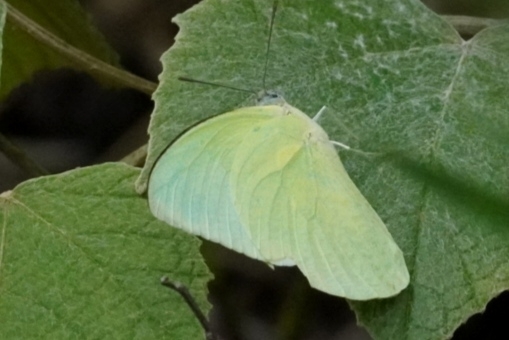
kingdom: Animalia
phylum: Arthropoda
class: Insecta
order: Lepidoptera
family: Pieridae
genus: Catopsilia
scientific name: Catopsilia pomona
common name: Common emigrant
